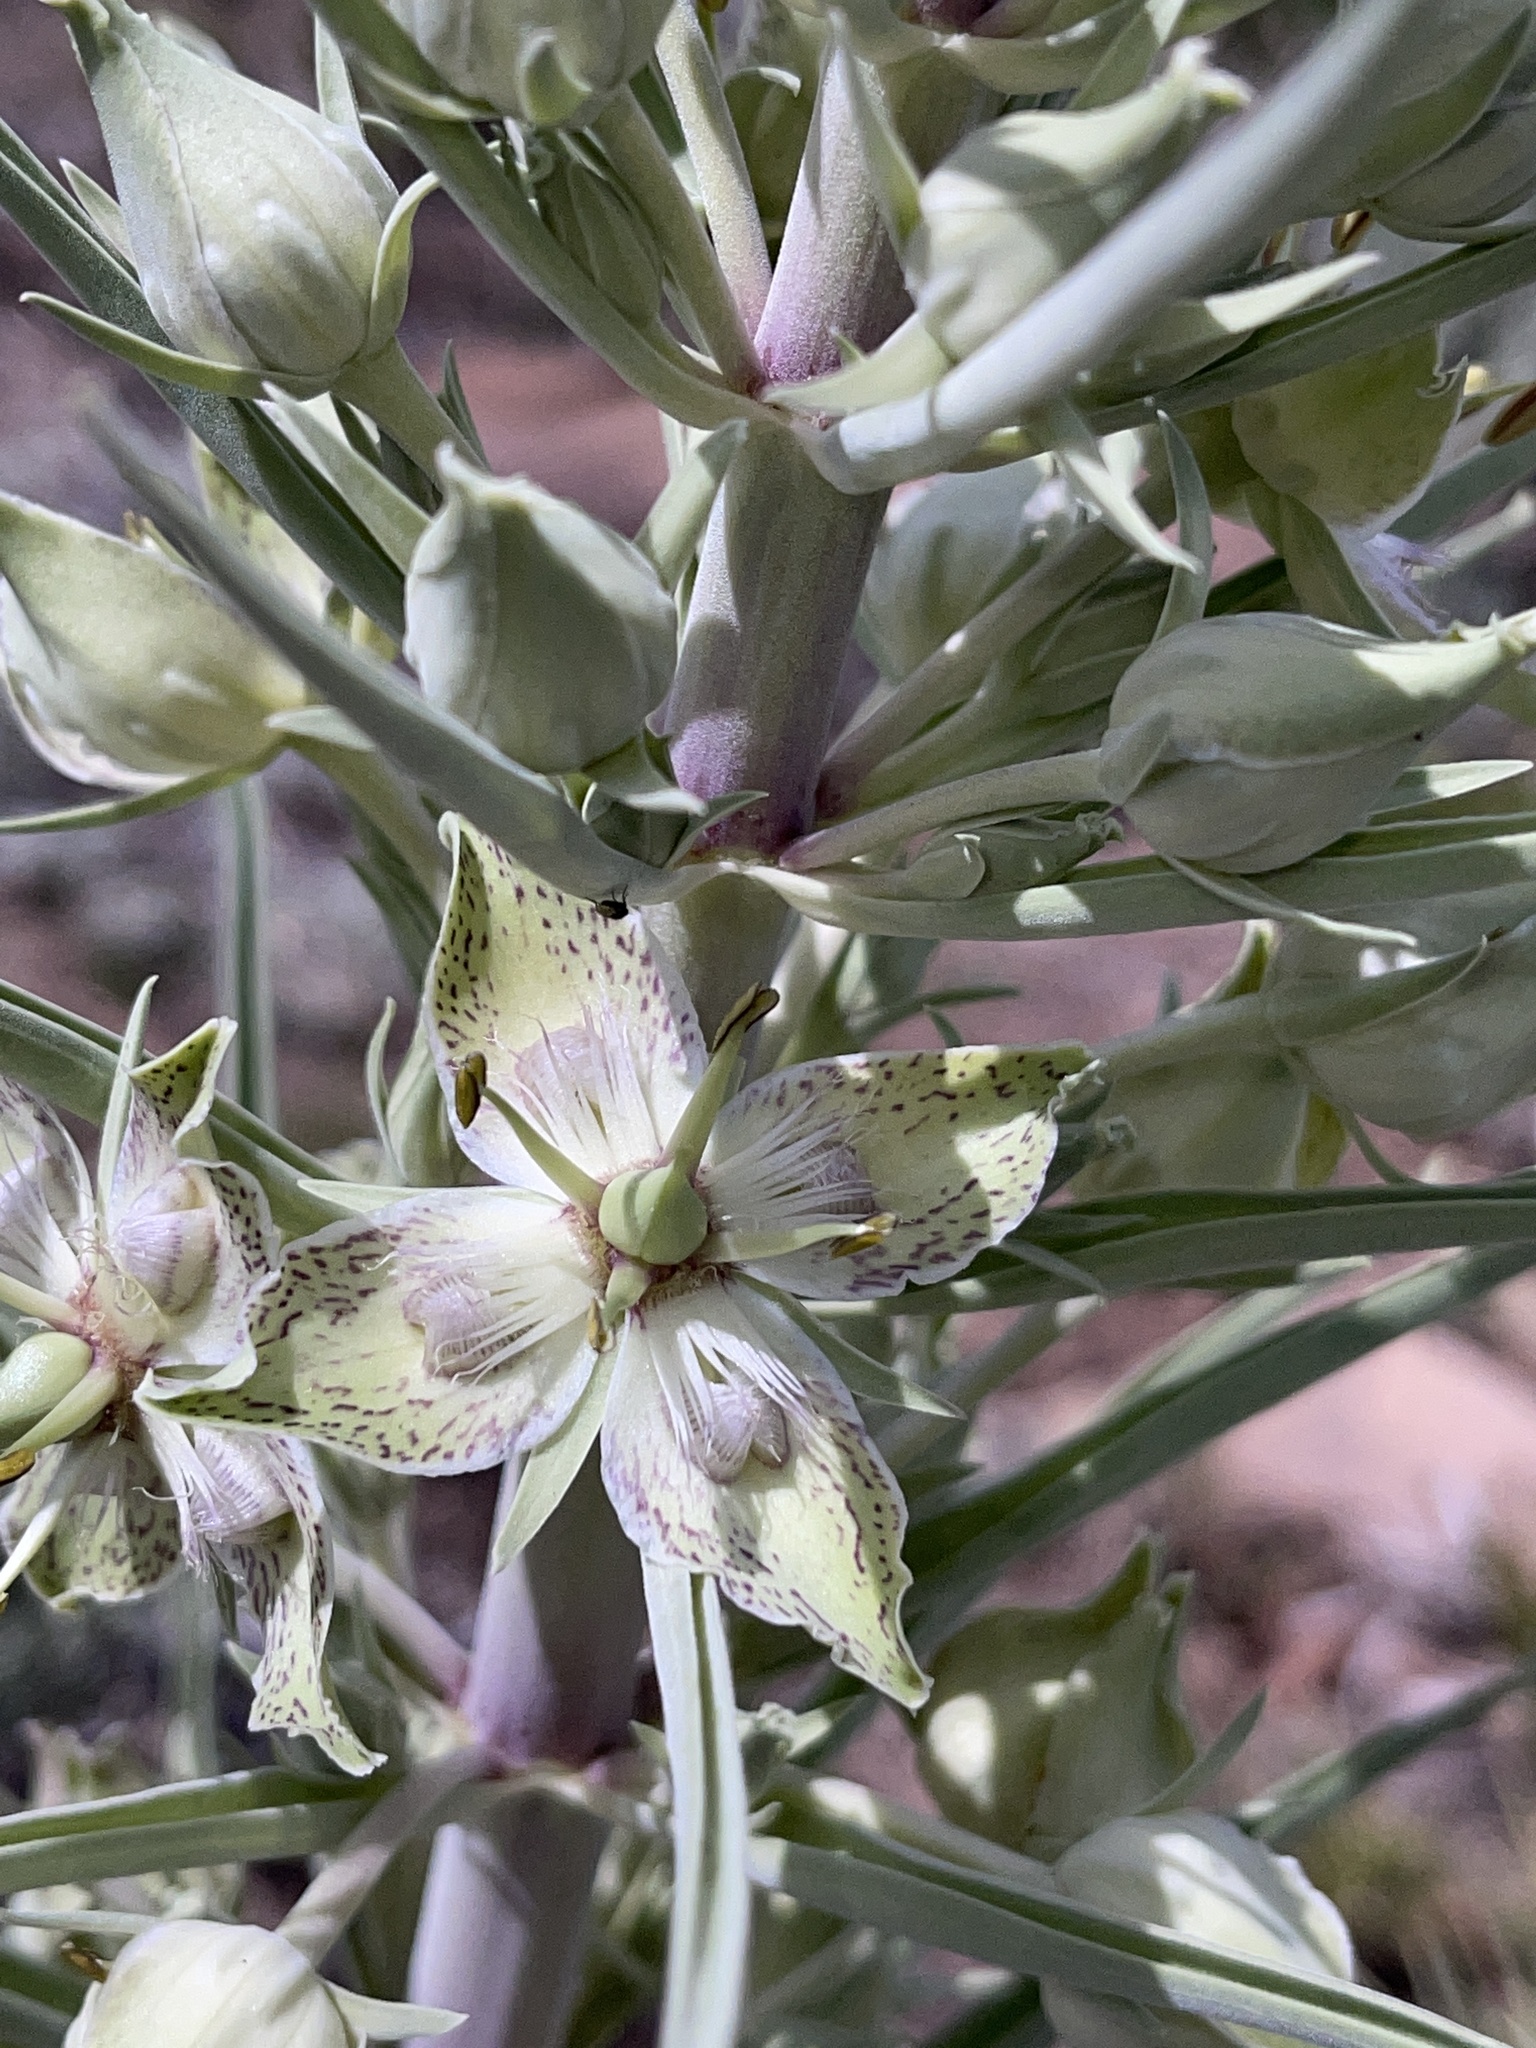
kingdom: Plantae
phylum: Tracheophyta
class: Magnoliopsida
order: Gentianales
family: Gentianaceae
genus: Frasera
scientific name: Frasera speciosa
